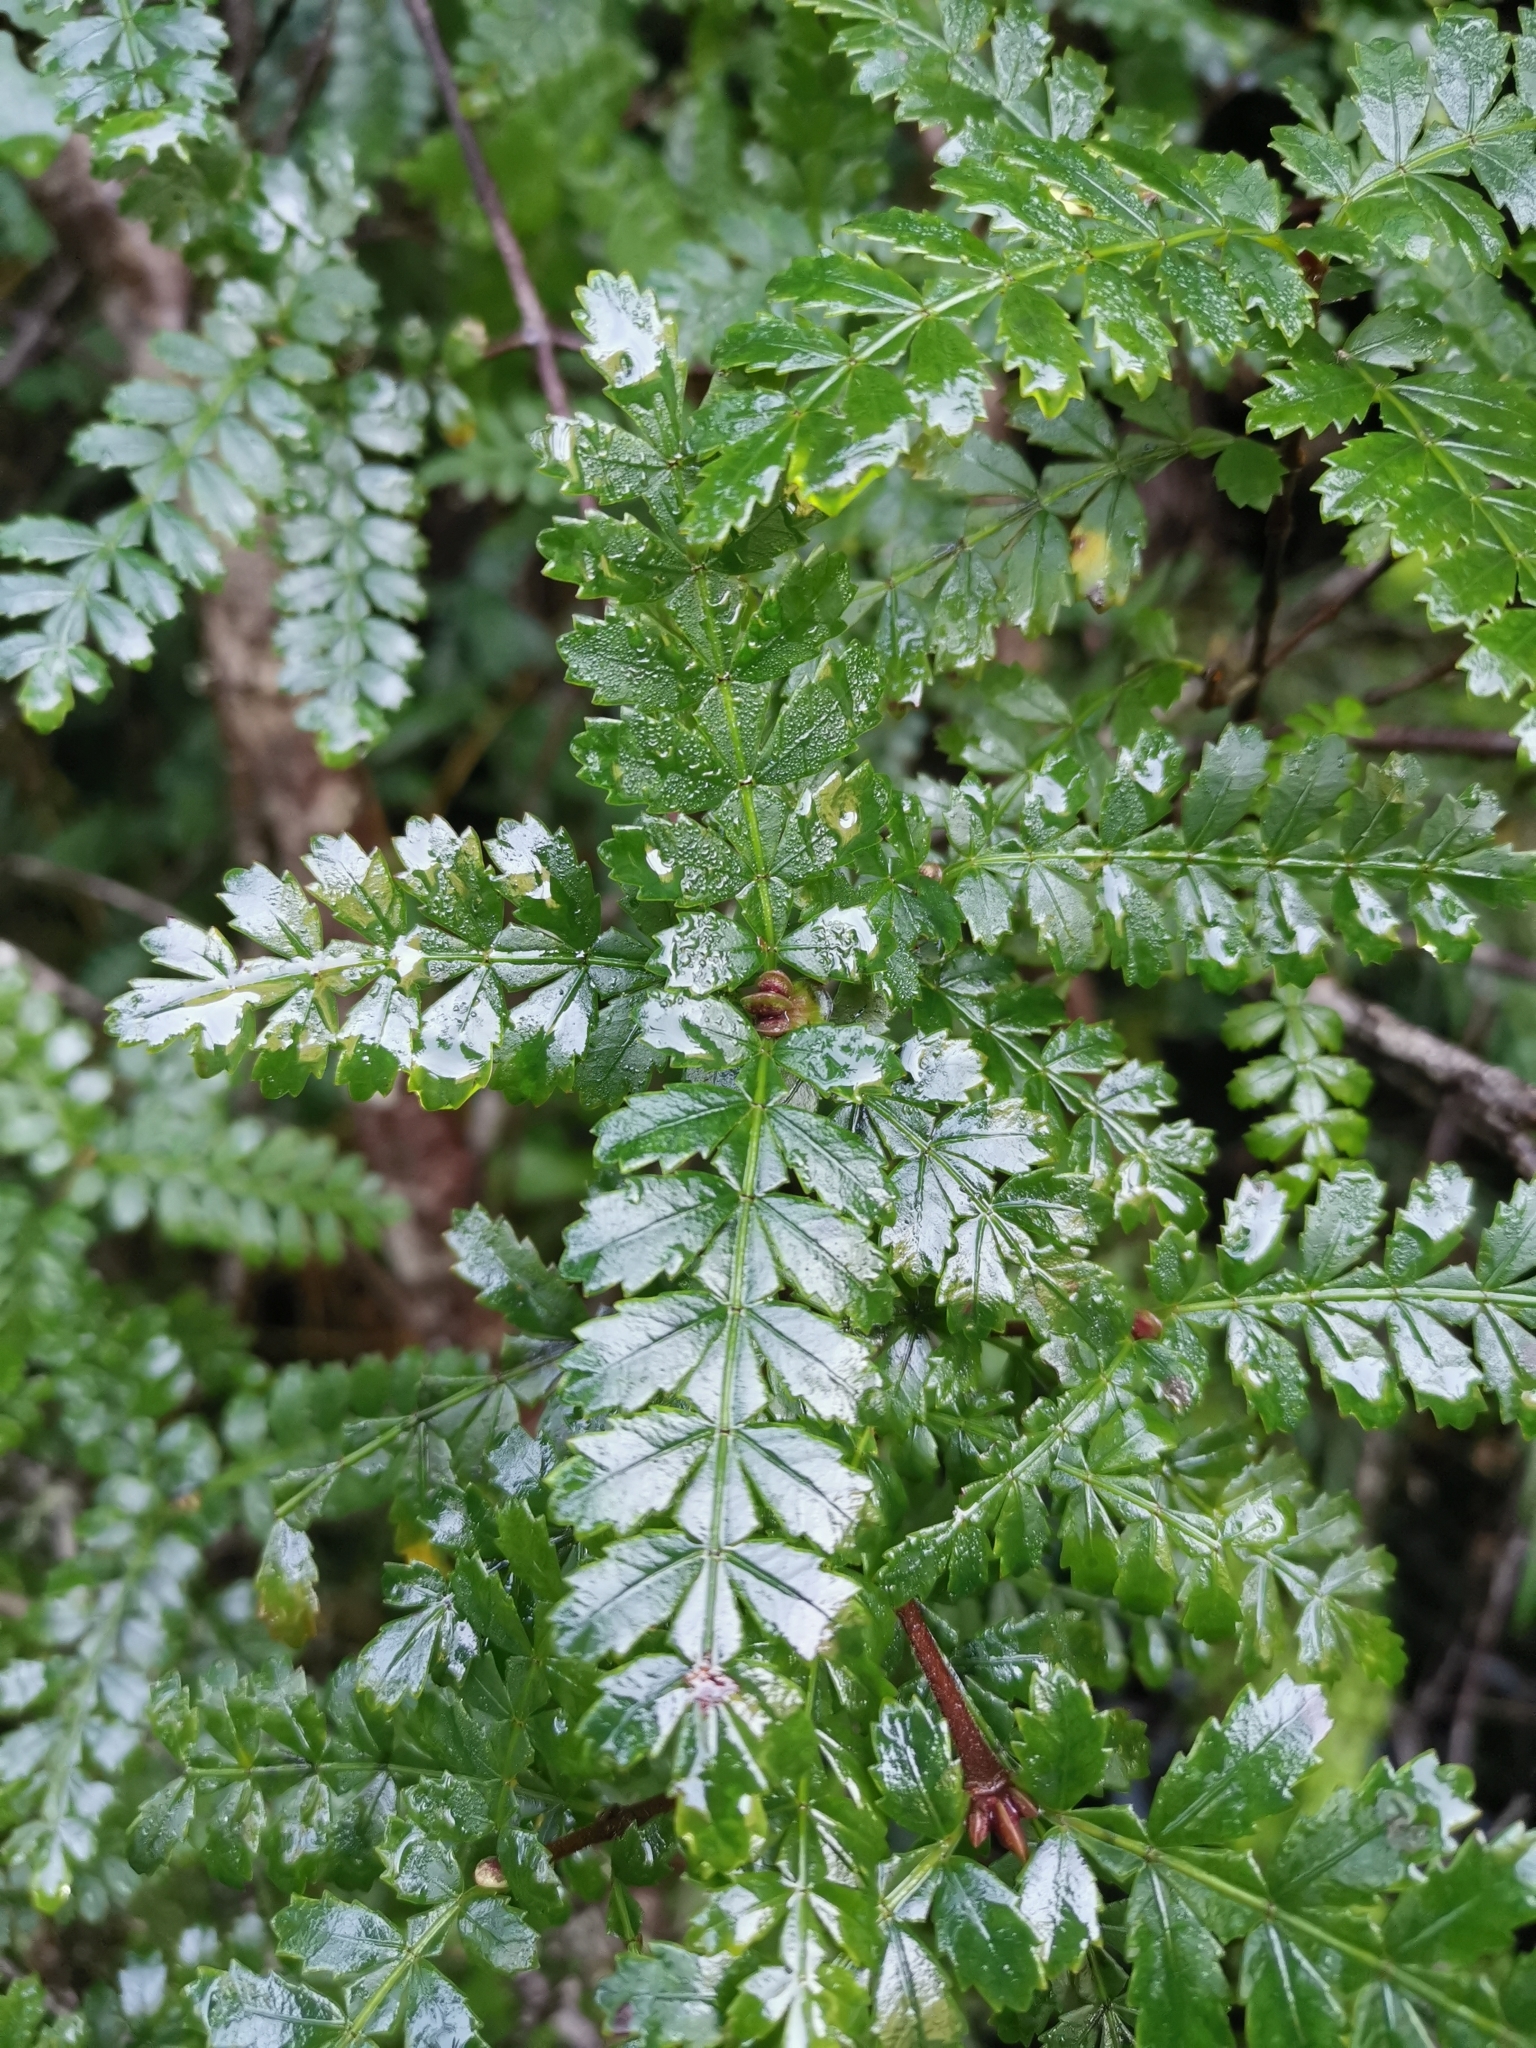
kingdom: Plantae
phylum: Tracheophyta
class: Magnoliopsida
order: Oxalidales
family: Cunoniaceae
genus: Weinmannia
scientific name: Weinmannia trichosperma
